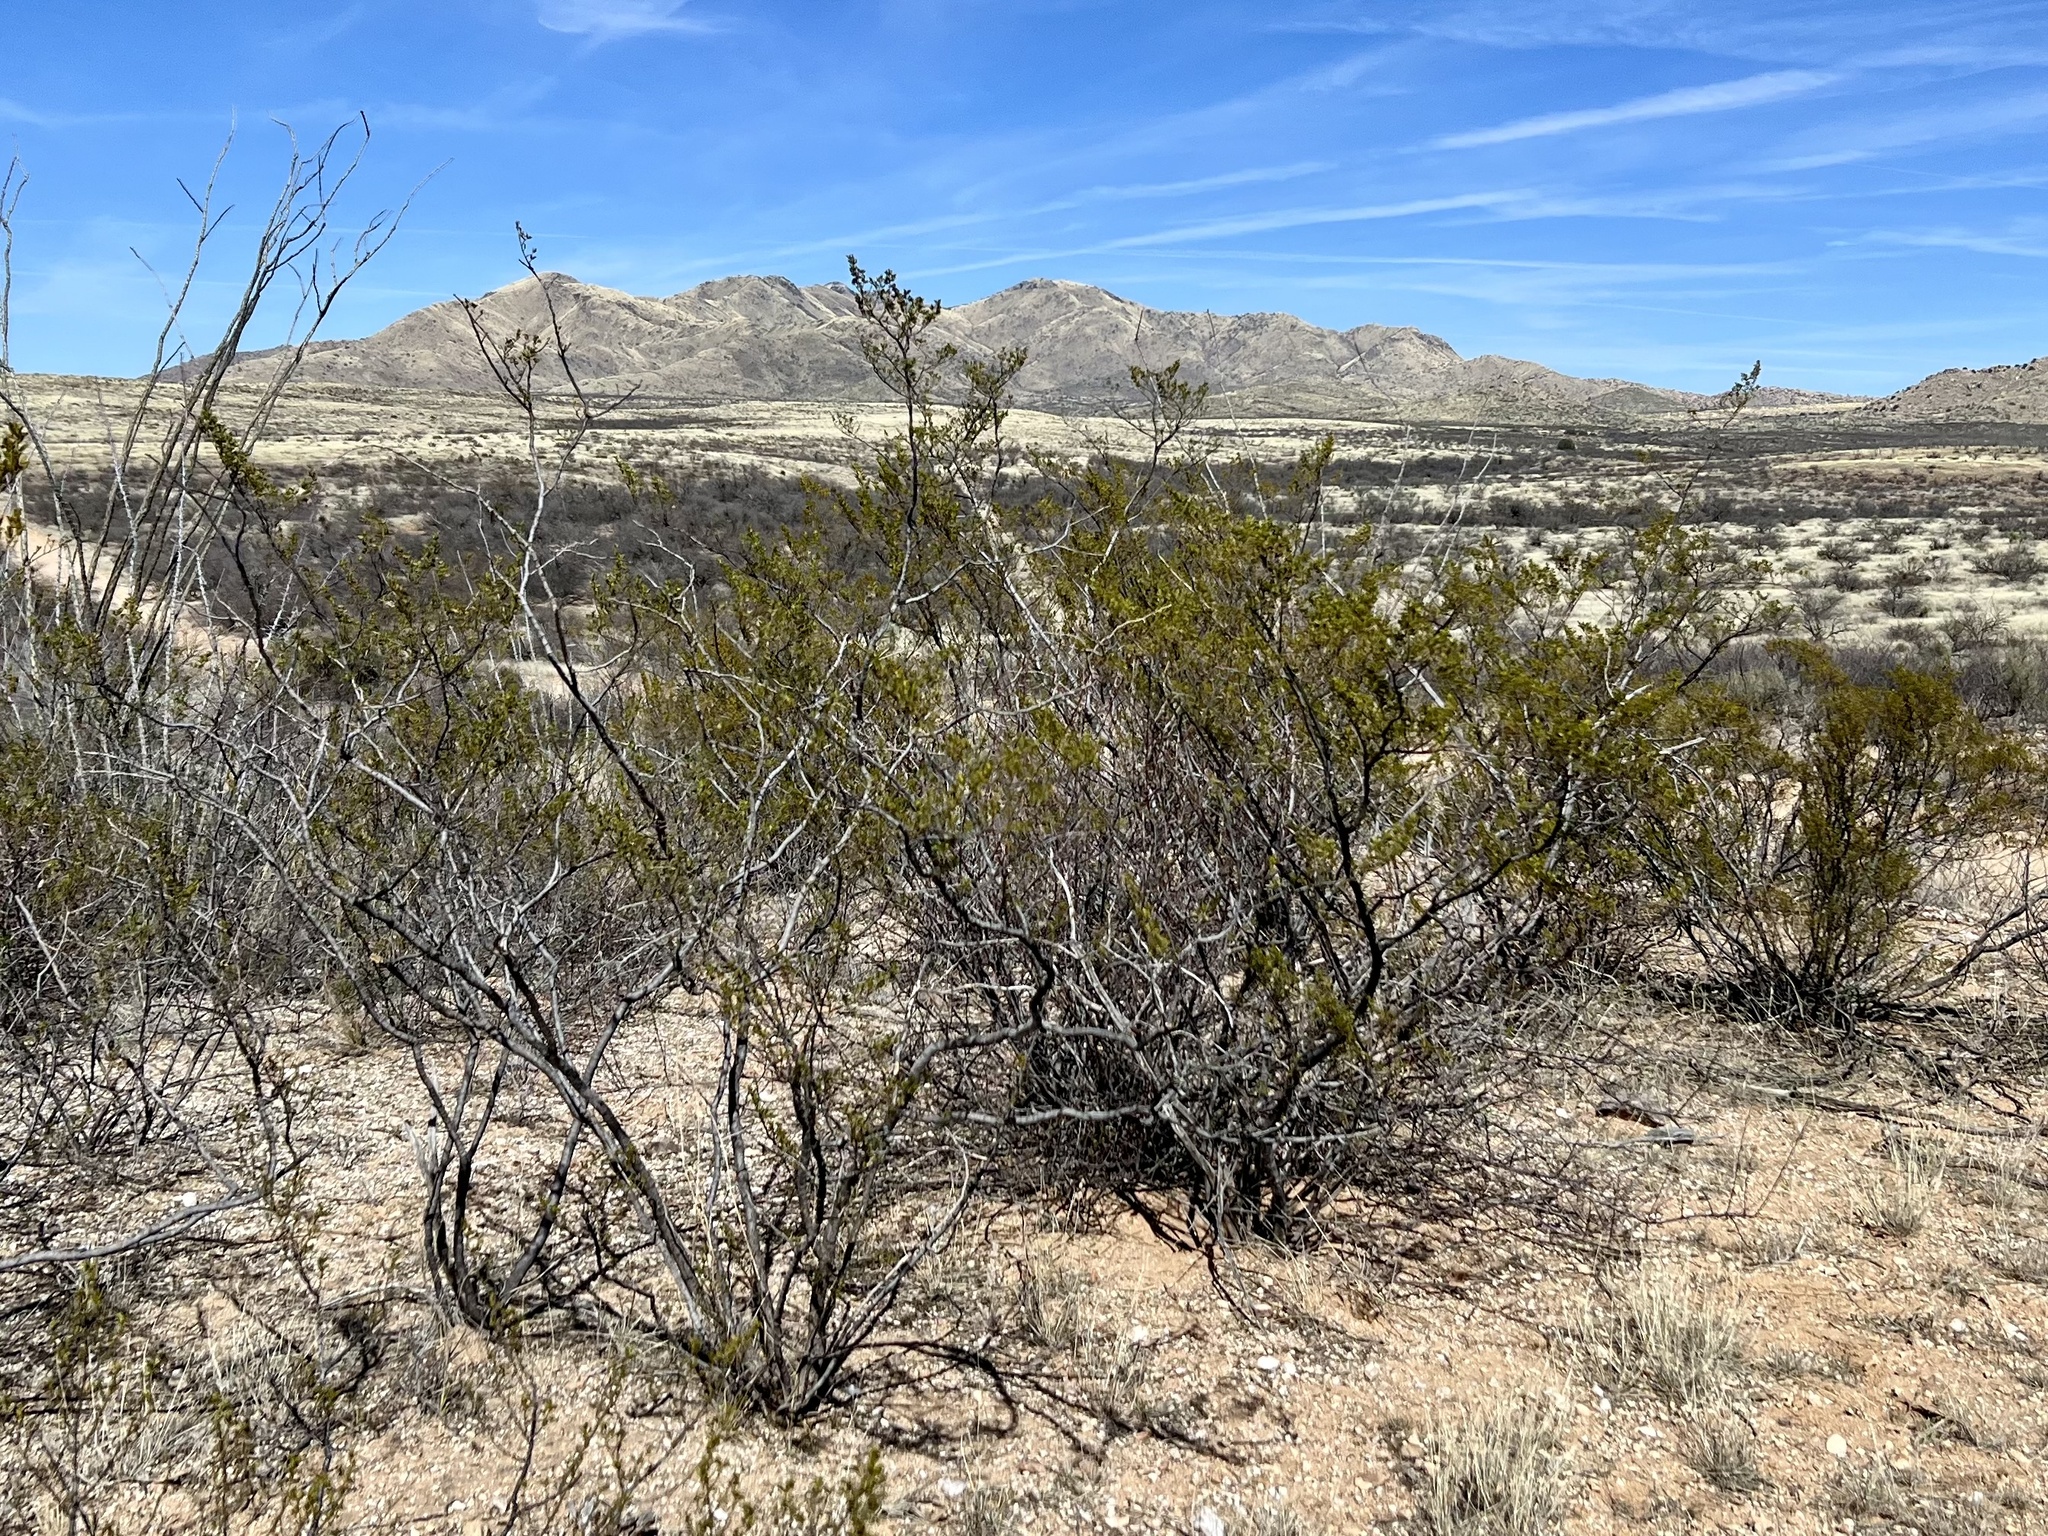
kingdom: Plantae
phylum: Tracheophyta
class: Magnoliopsida
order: Zygophyllales
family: Zygophyllaceae
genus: Larrea
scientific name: Larrea tridentata
